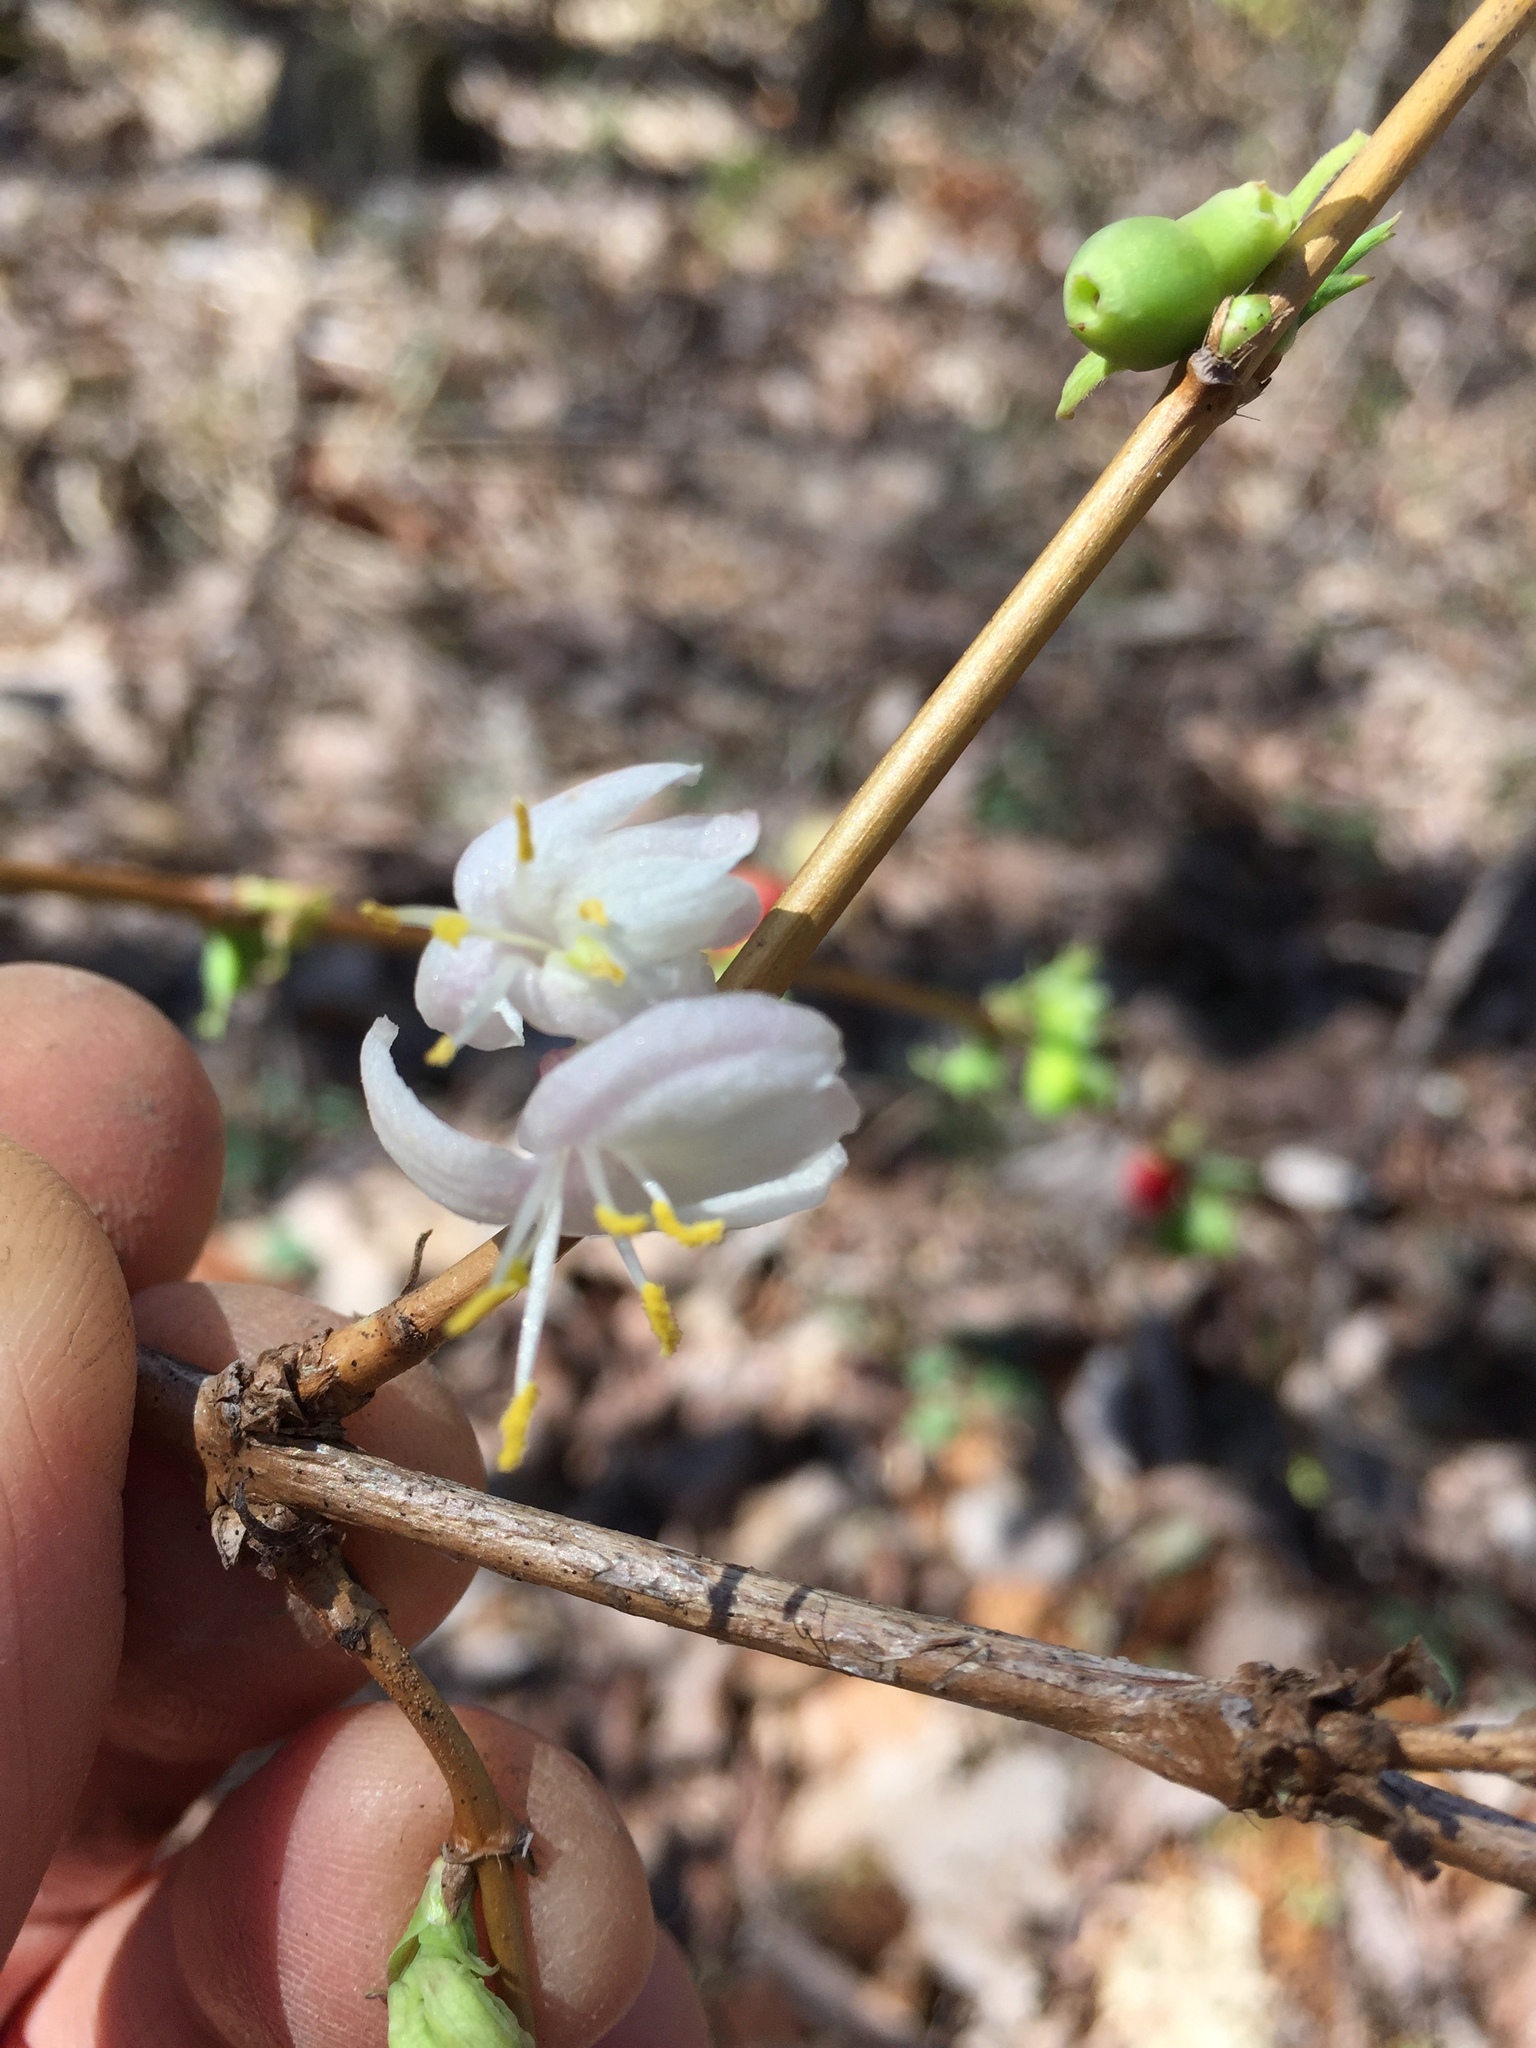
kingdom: Plantae
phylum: Tracheophyta
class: Magnoliopsida
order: Dipsacales
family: Caprifoliaceae
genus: Lonicera
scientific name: Lonicera fragrantissima
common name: Fragrant honeysuckle
